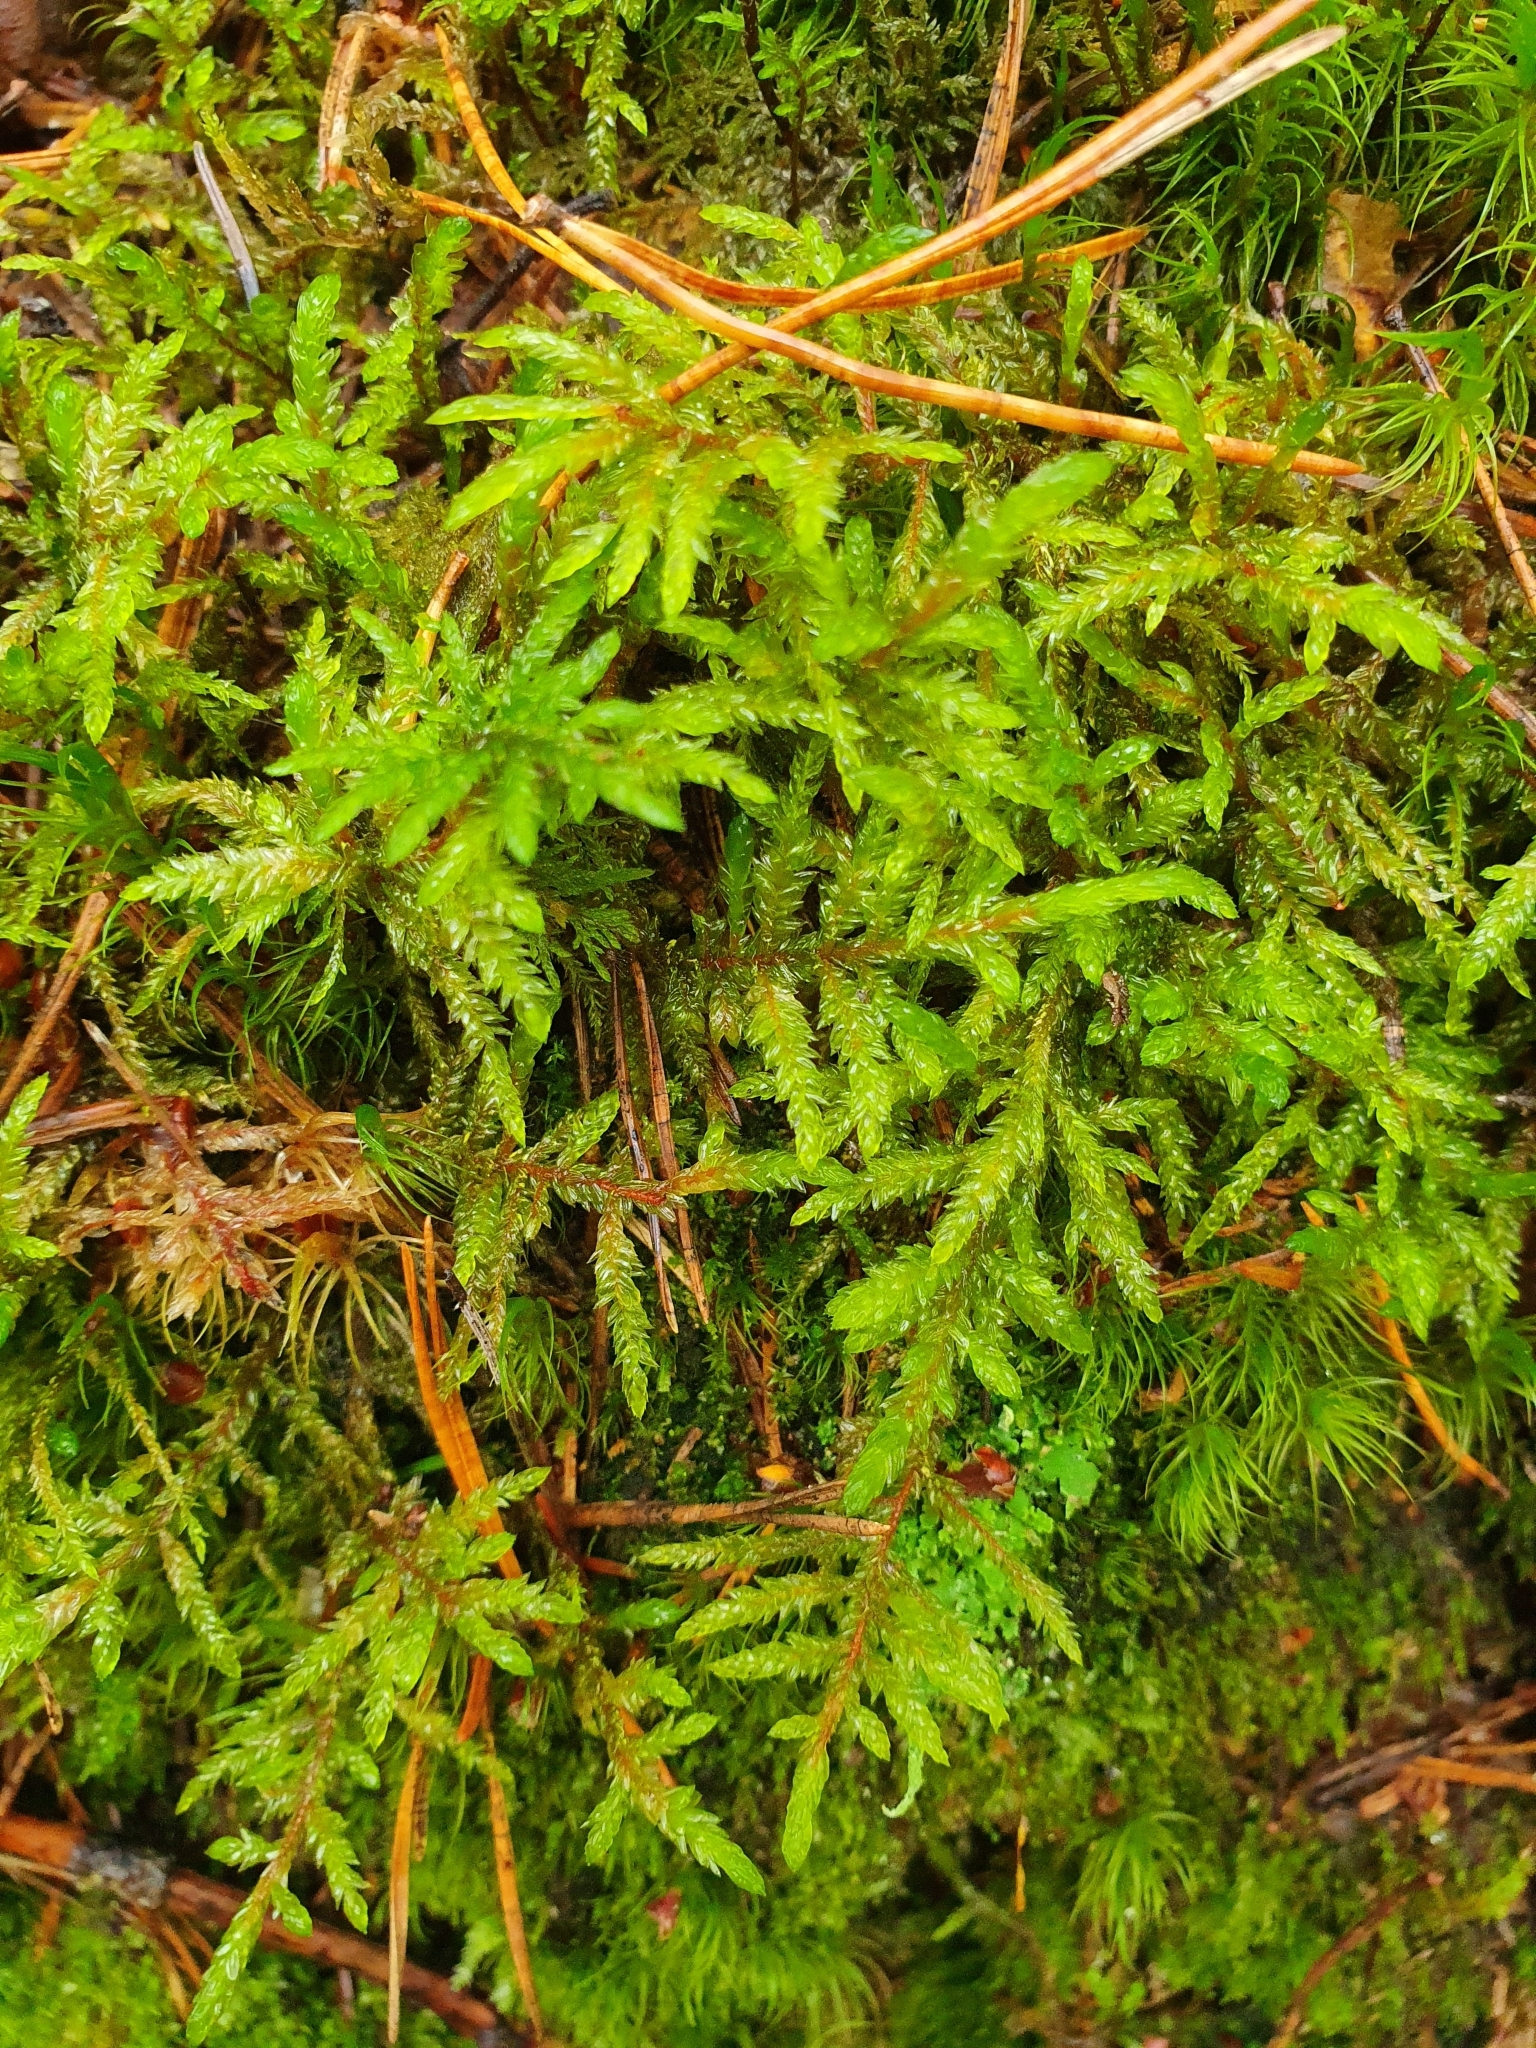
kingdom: Plantae
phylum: Bryophyta
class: Bryopsida
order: Hypnales
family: Hylocomiaceae
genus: Pleurozium
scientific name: Pleurozium schreberi
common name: Red-stemmed feather moss
